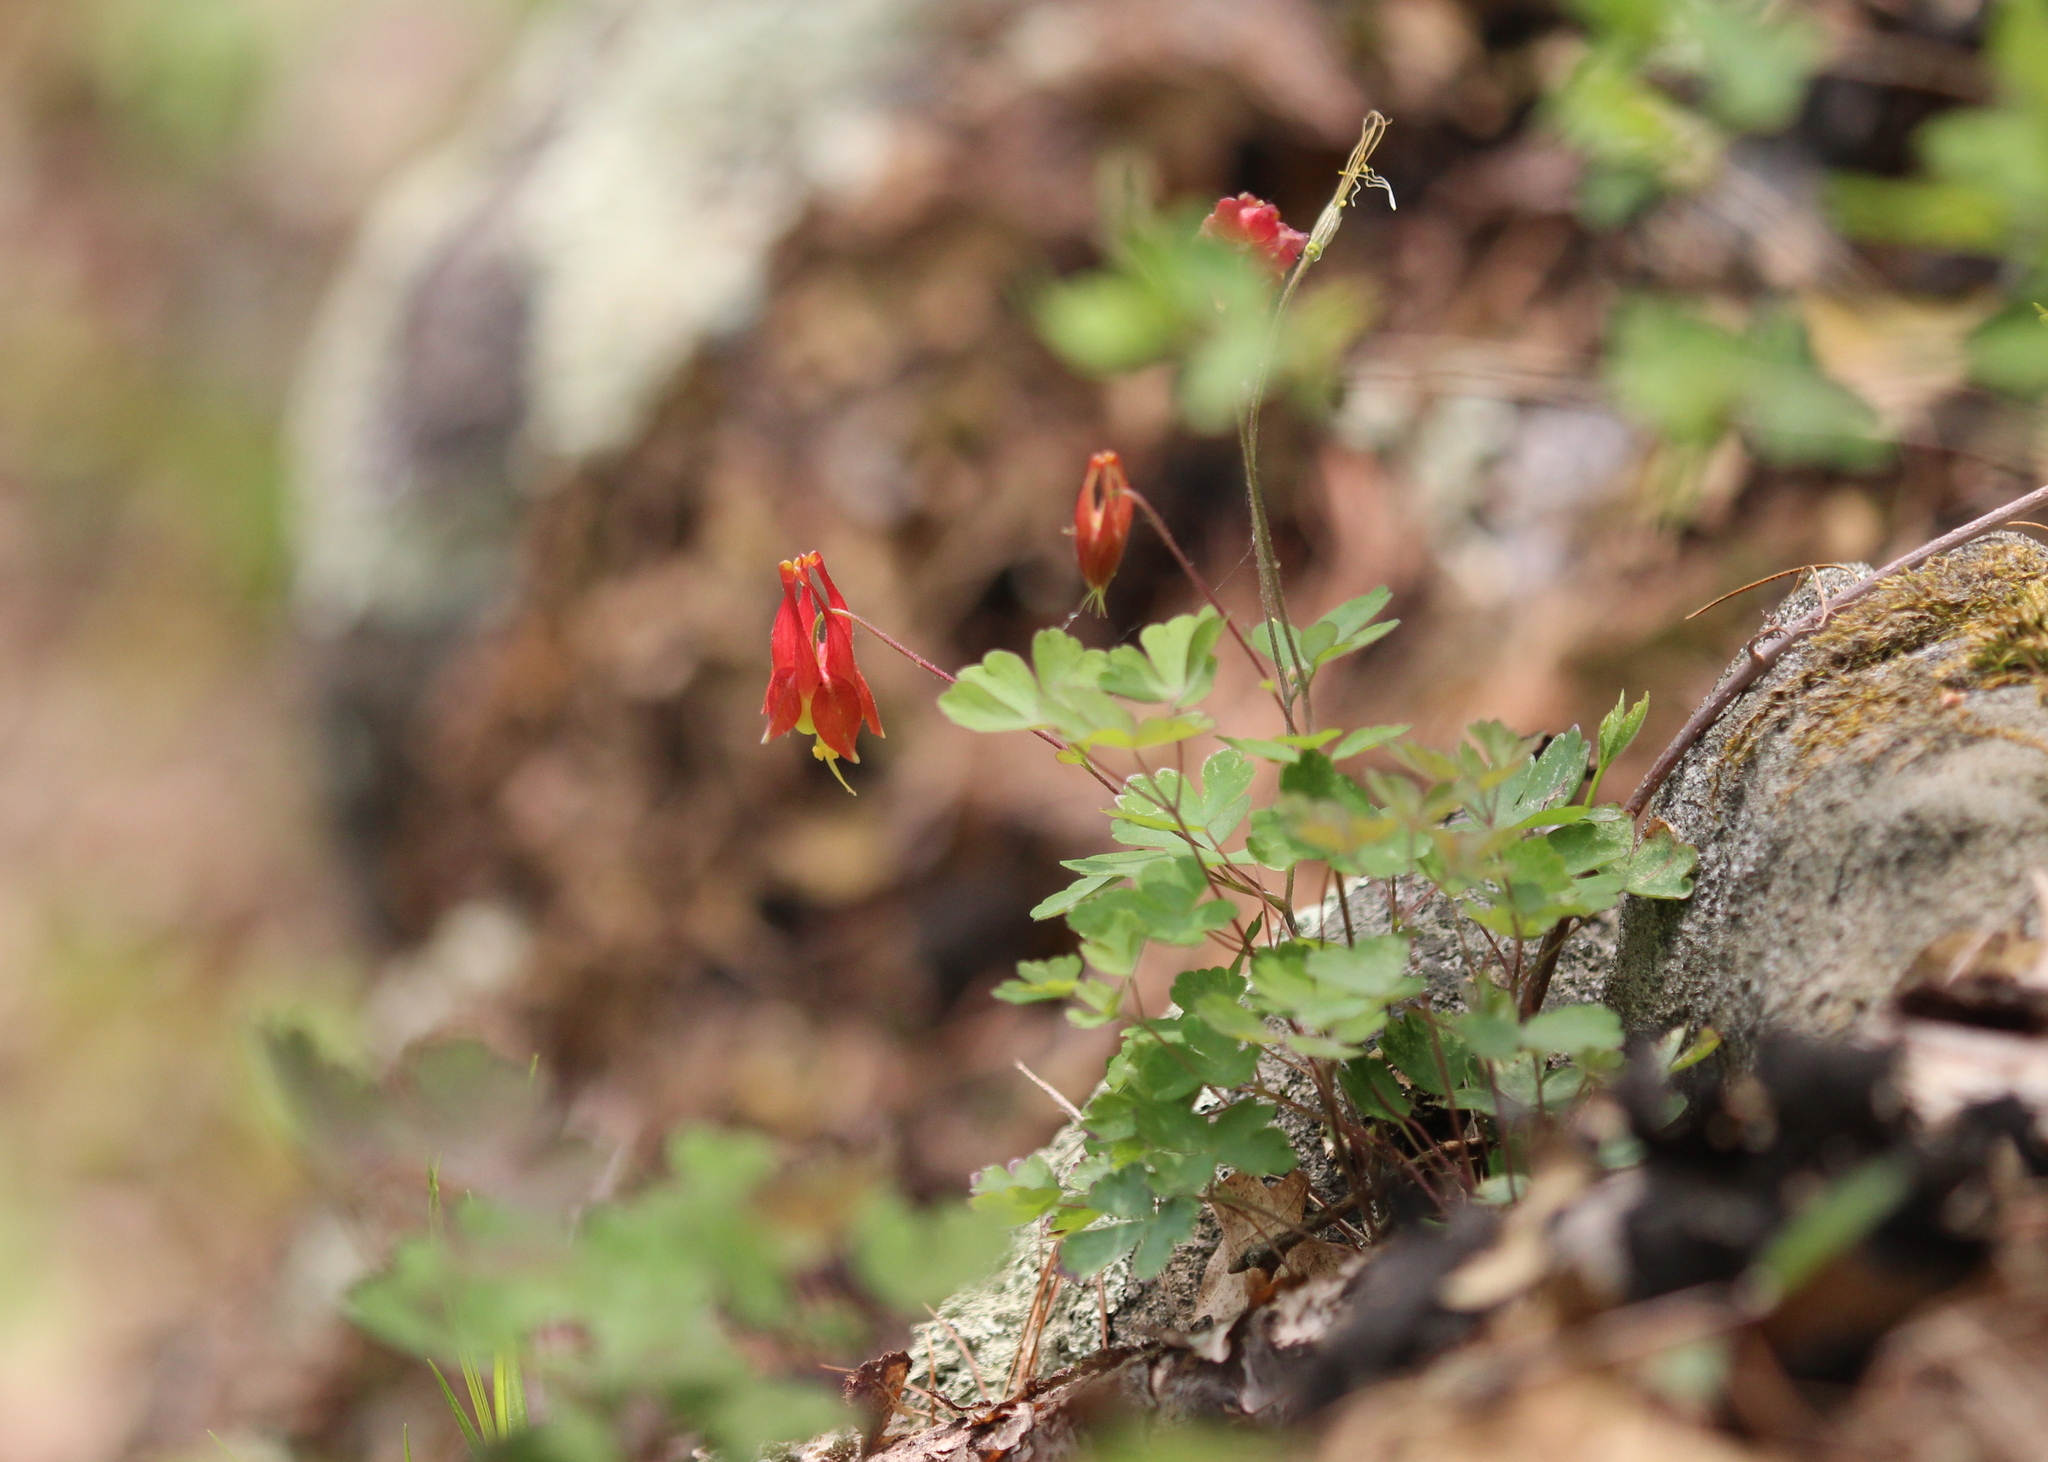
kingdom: Plantae
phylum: Tracheophyta
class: Magnoliopsida
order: Ranunculales
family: Ranunculaceae
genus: Aquilegia
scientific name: Aquilegia canadensis
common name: American columbine
